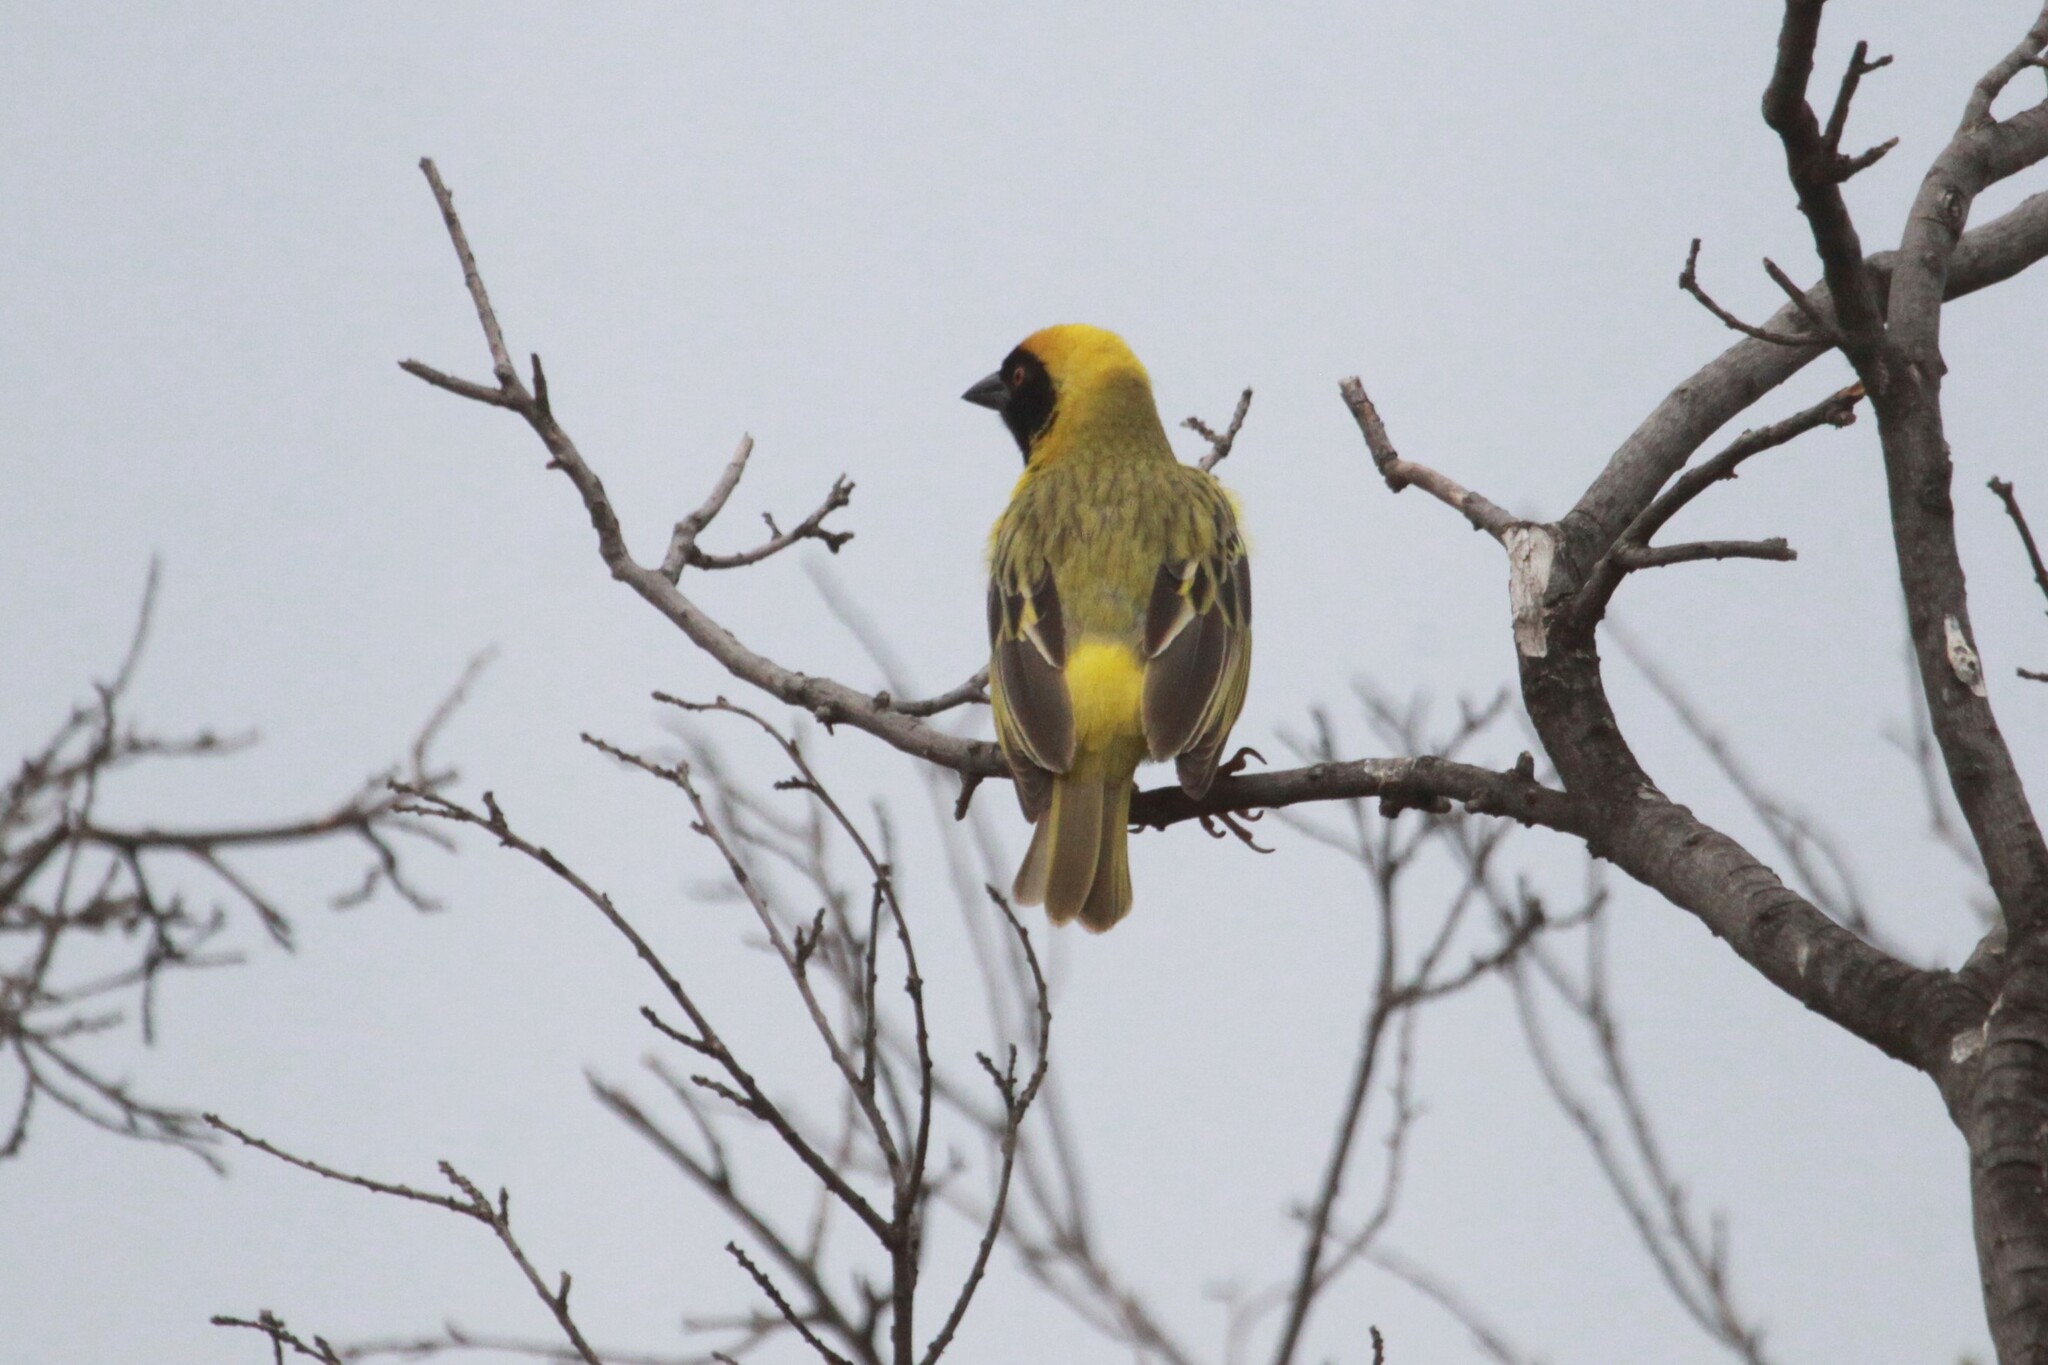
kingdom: Animalia
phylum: Chordata
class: Aves
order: Passeriformes
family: Ploceidae
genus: Ploceus
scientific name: Ploceus velatus
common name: Southern masked weaver
